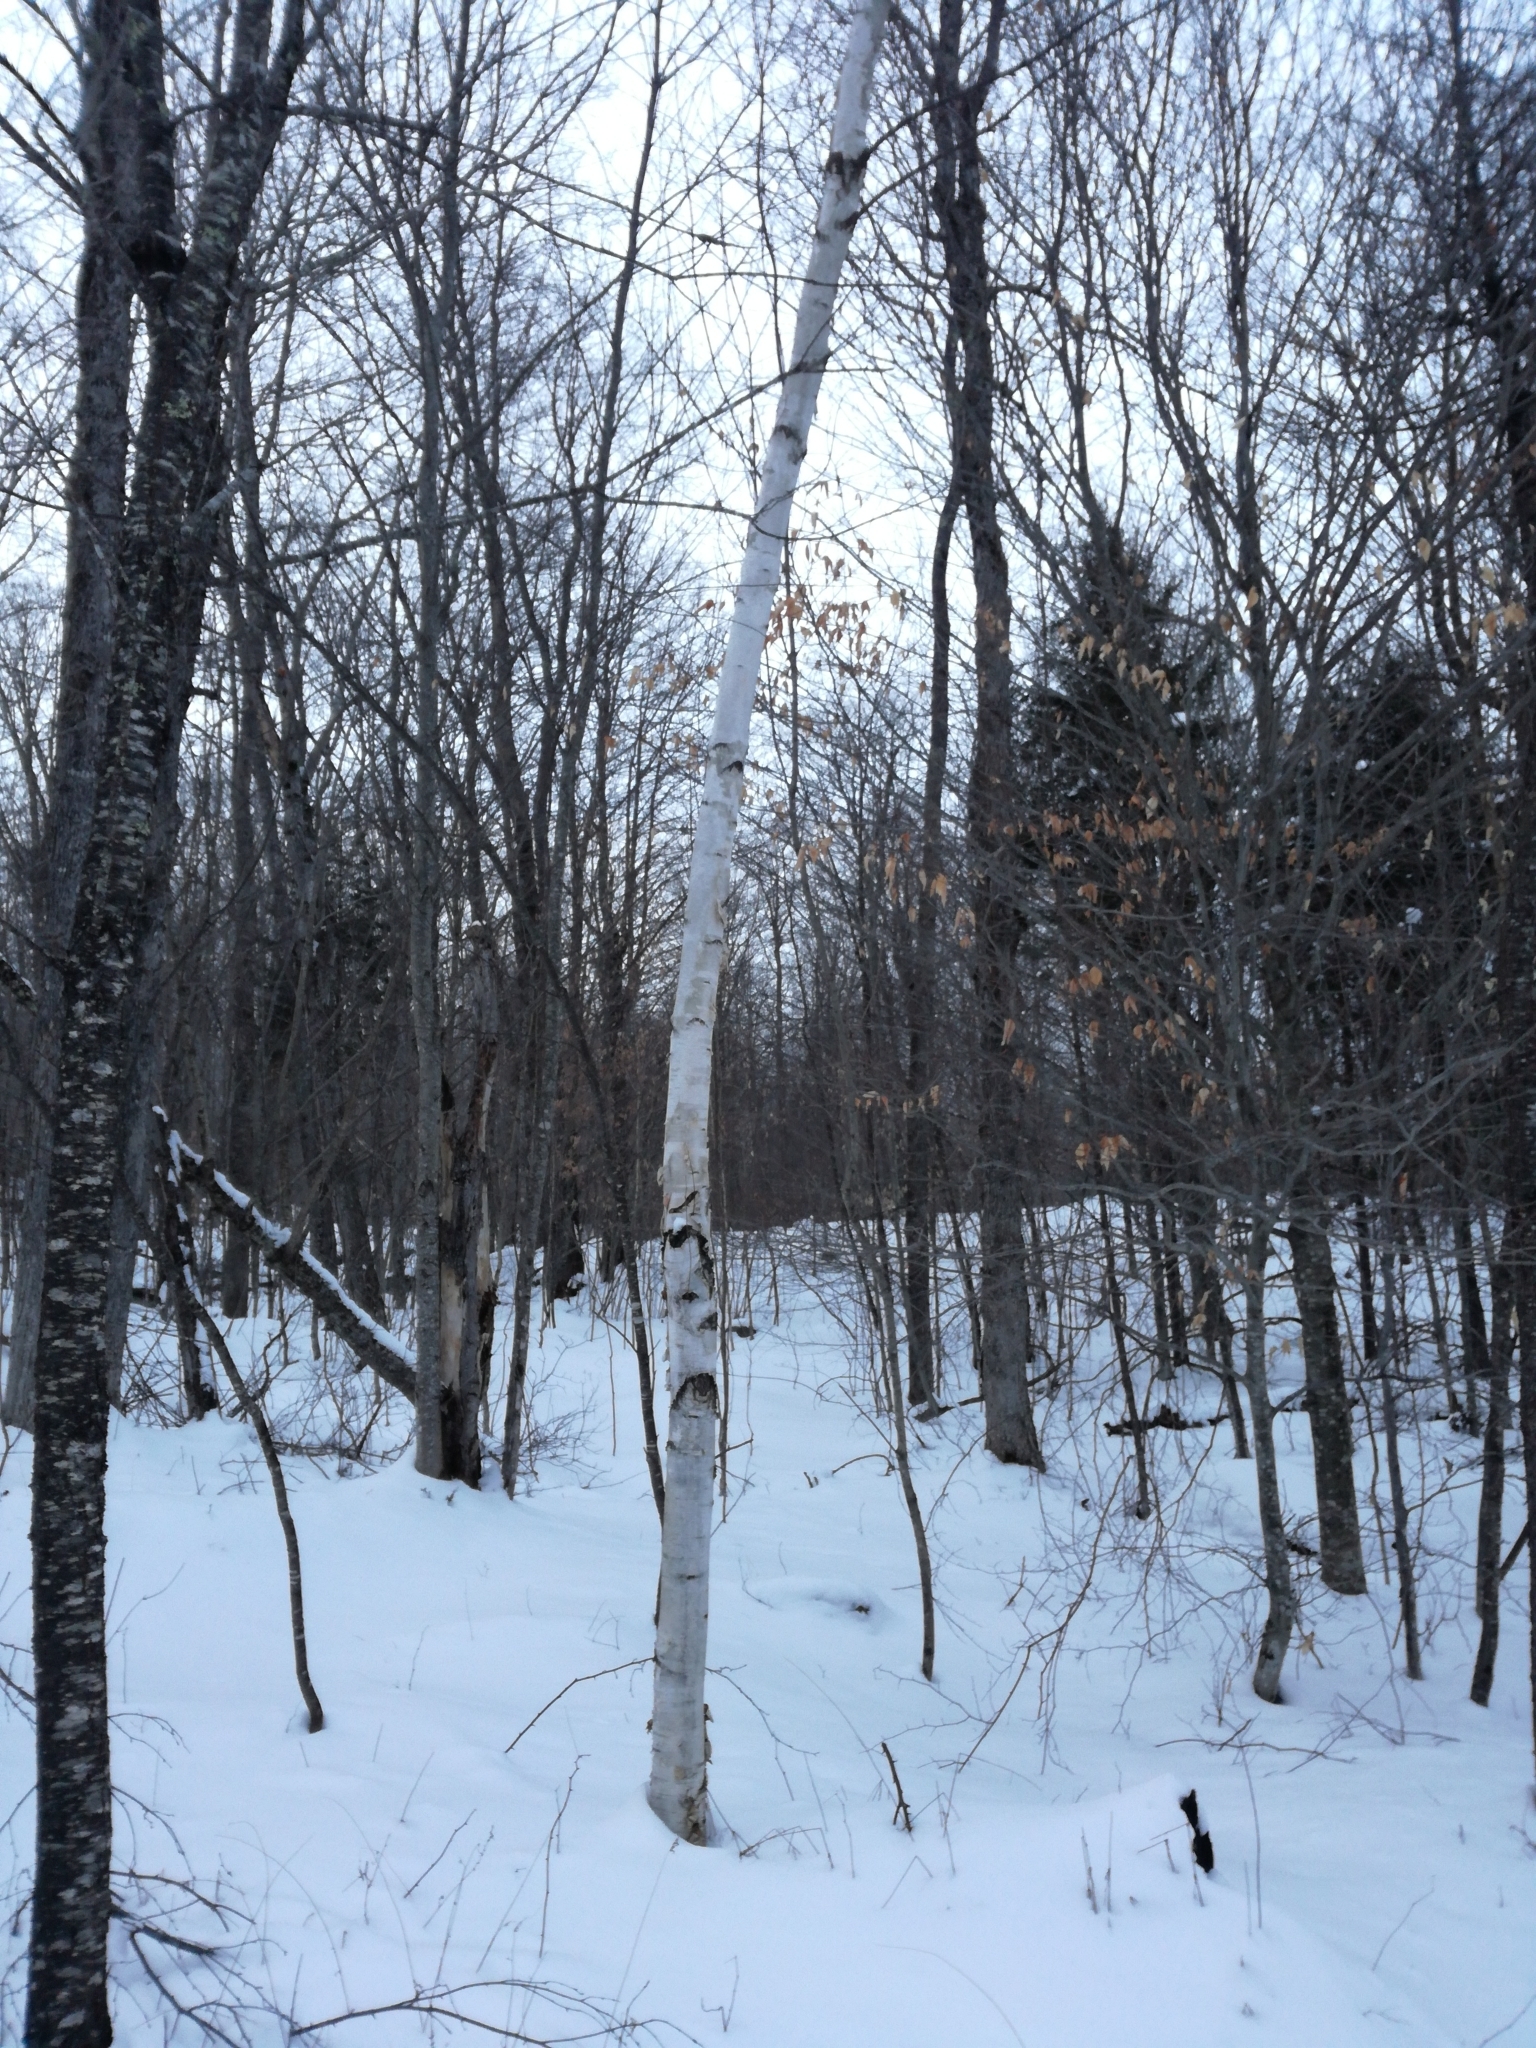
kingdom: Plantae
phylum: Tracheophyta
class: Magnoliopsida
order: Fagales
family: Betulaceae
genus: Betula
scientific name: Betula papyrifera
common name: Paper birch
